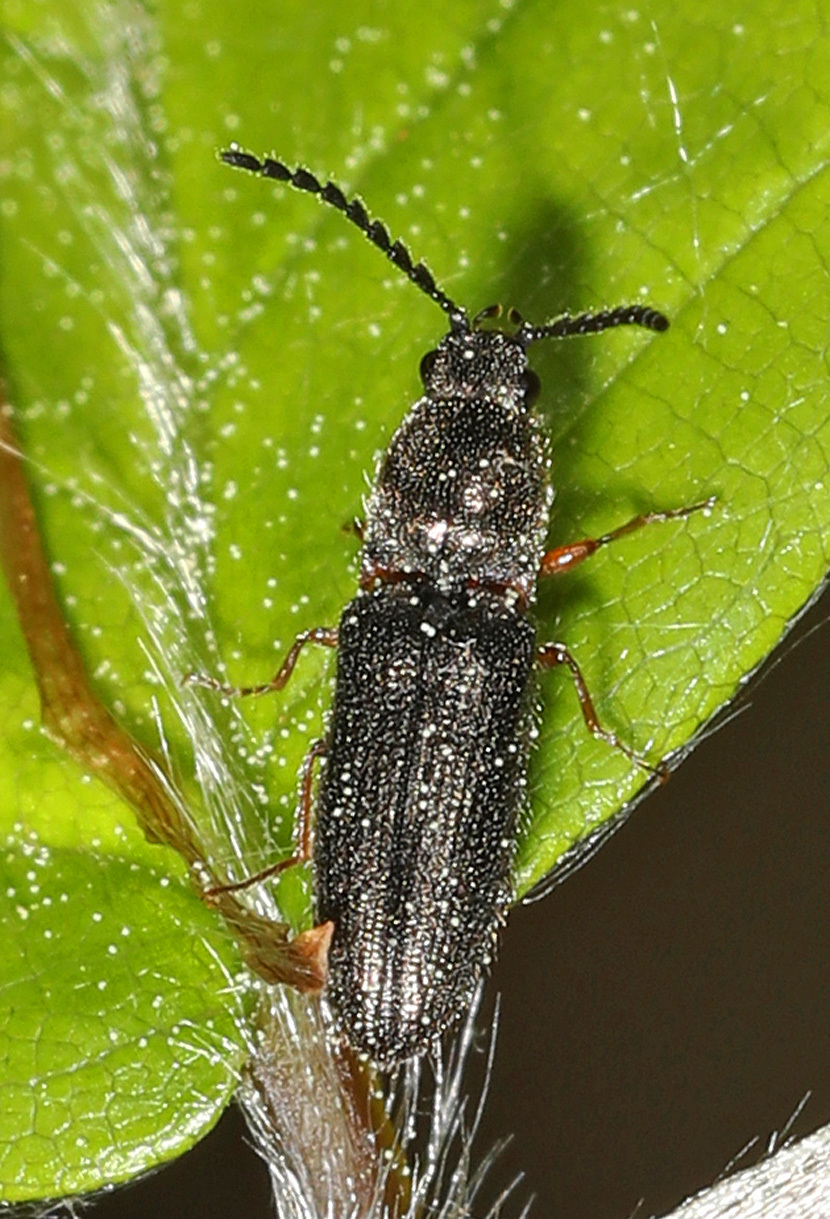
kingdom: Animalia
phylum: Arthropoda
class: Insecta
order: Coleoptera
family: Elateridae
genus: Limonius
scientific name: Limonius basilaris
